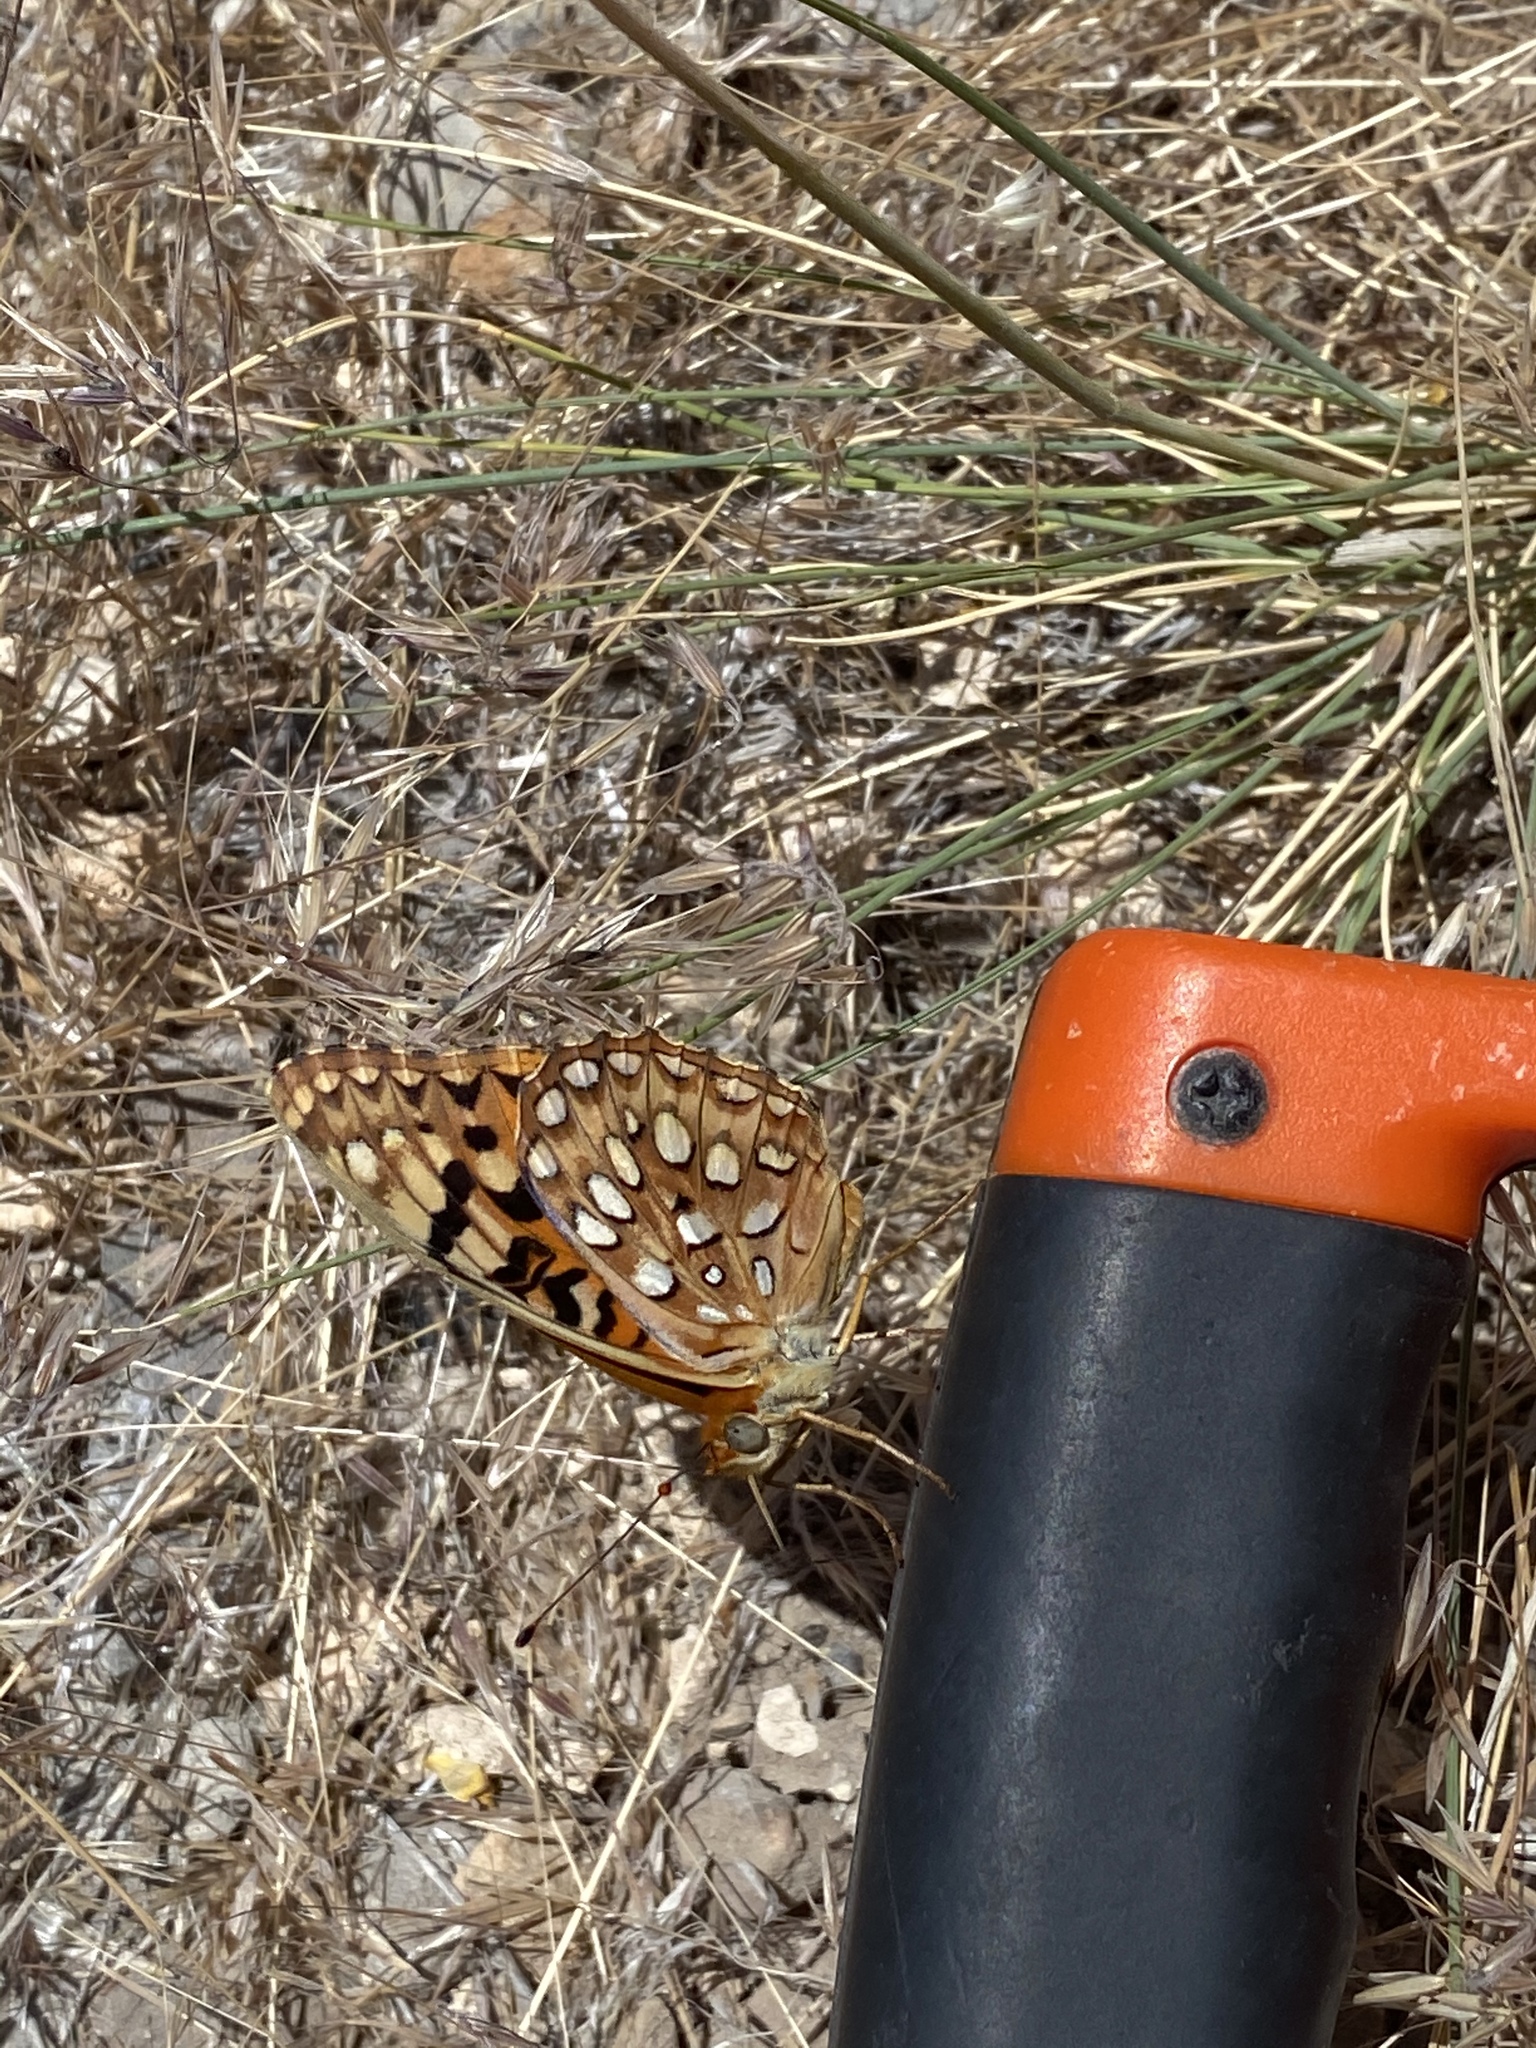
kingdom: Animalia
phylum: Arthropoda
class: Insecta
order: Lepidoptera
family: Nymphalidae
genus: Argynnis
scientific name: Argynnis coronis
